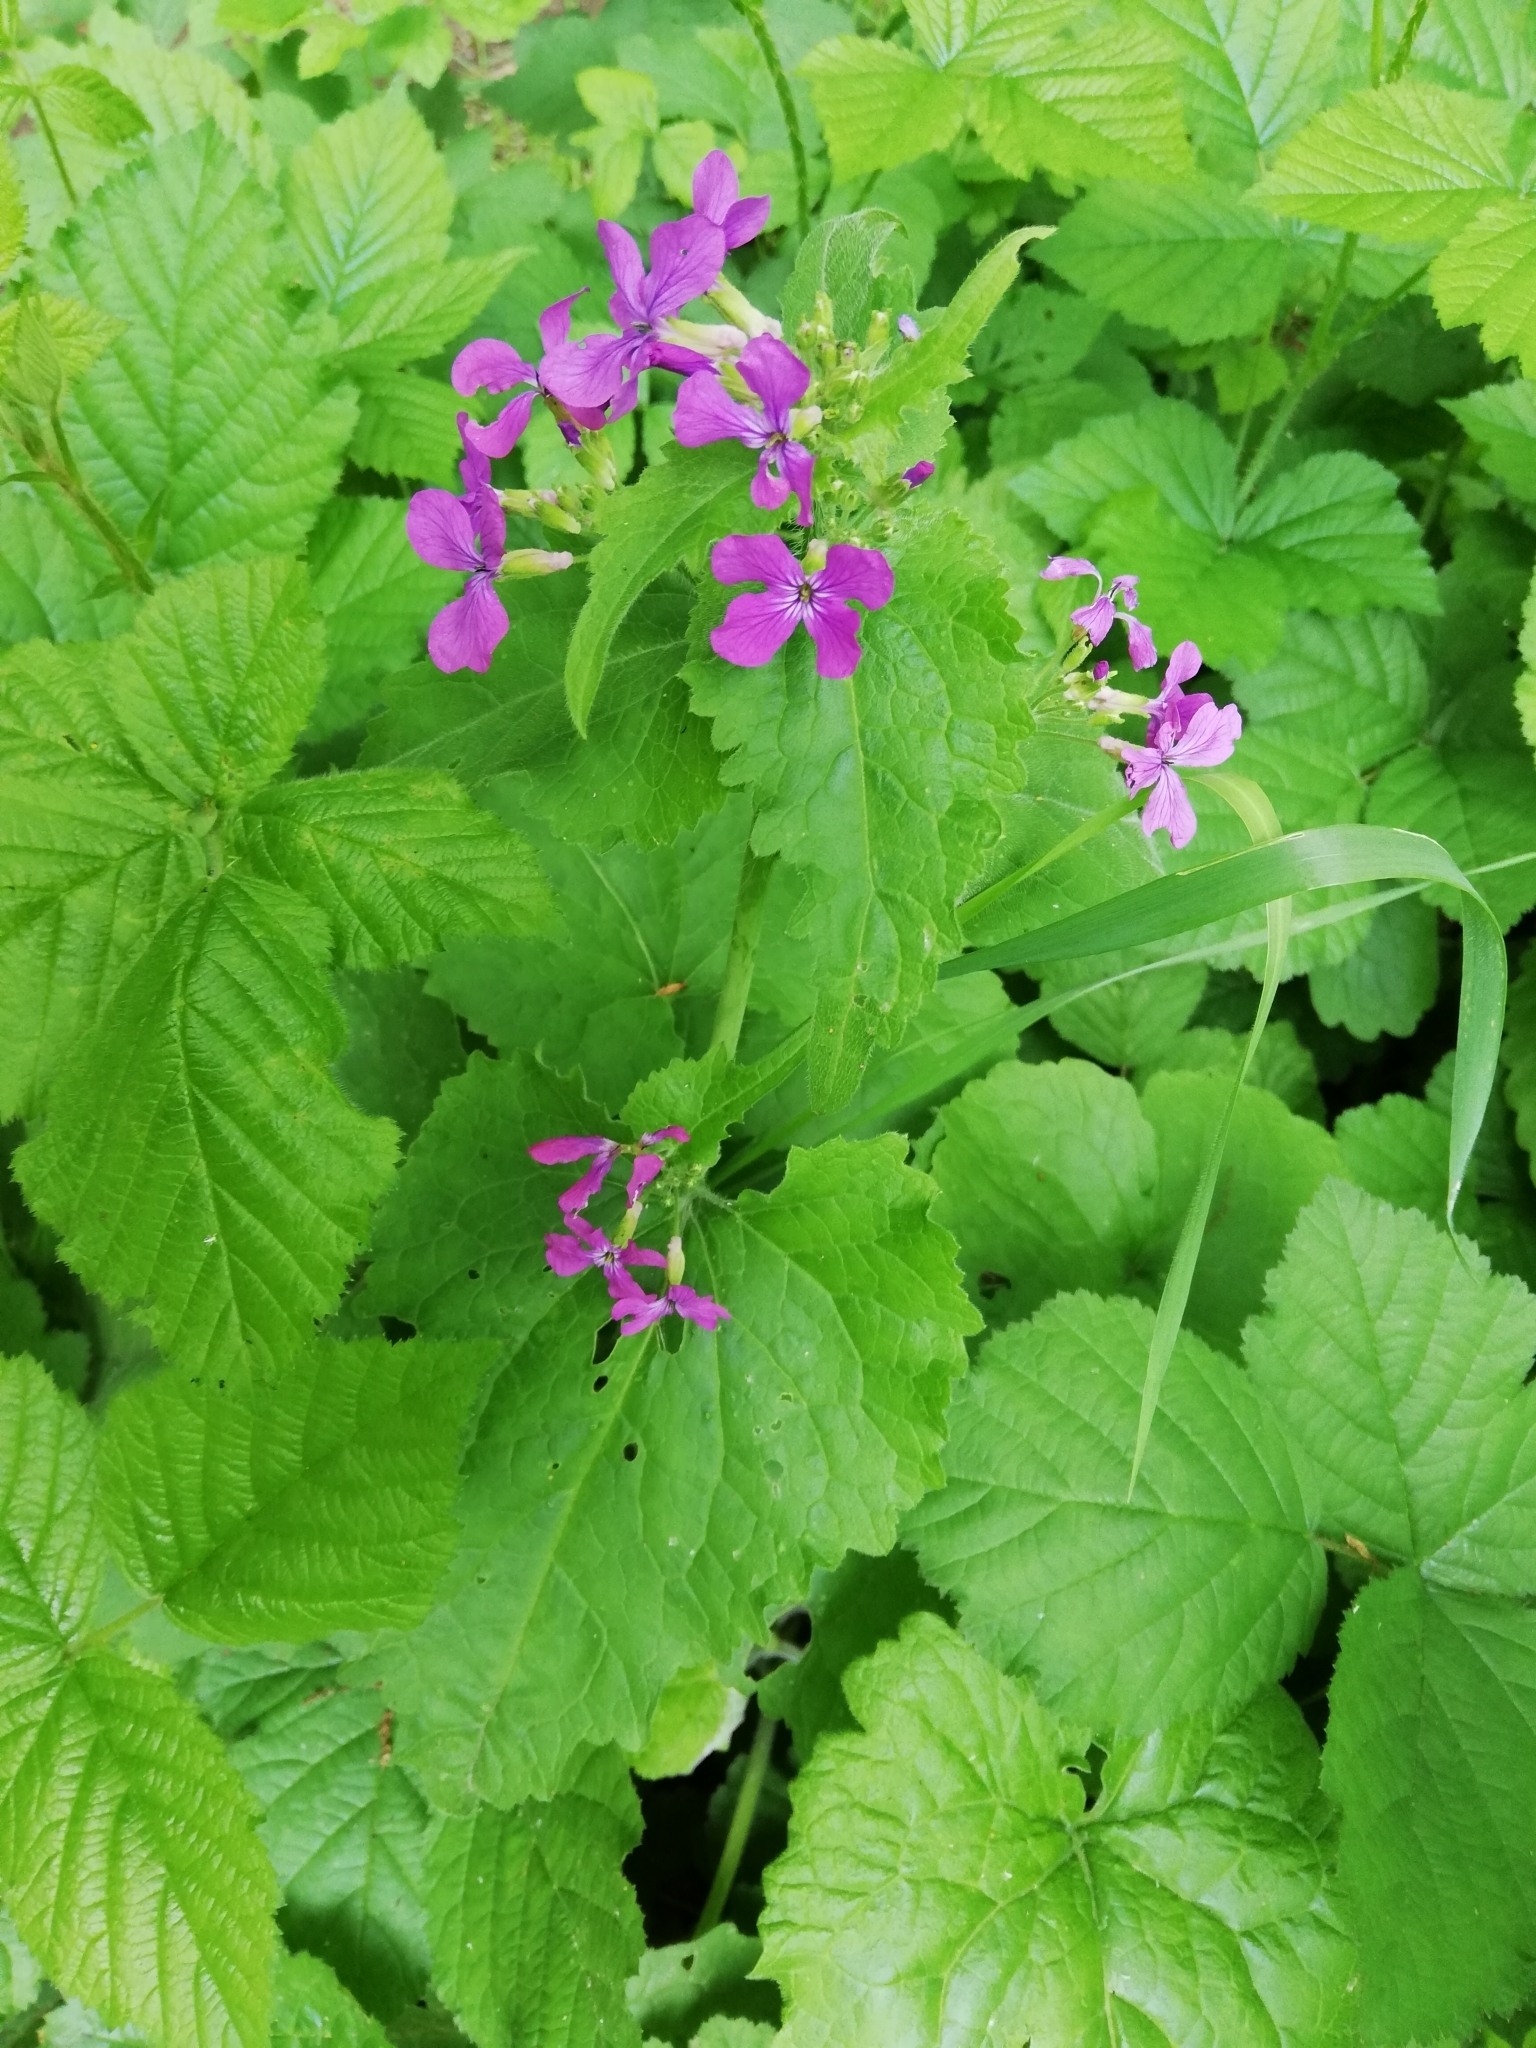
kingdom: Plantae
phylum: Tracheophyta
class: Magnoliopsida
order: Brassicales
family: Brassicaceae
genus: Lunaria
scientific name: Lunaria annua
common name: Honesty
